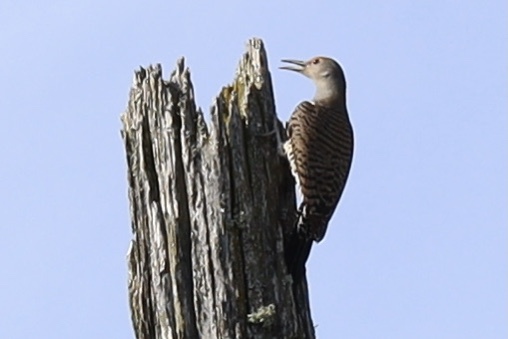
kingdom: Animalia
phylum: Chordata
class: Aves
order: Piciformes
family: Picidae
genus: Colaptes
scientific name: Colaptes auratus
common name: Northern flicker
